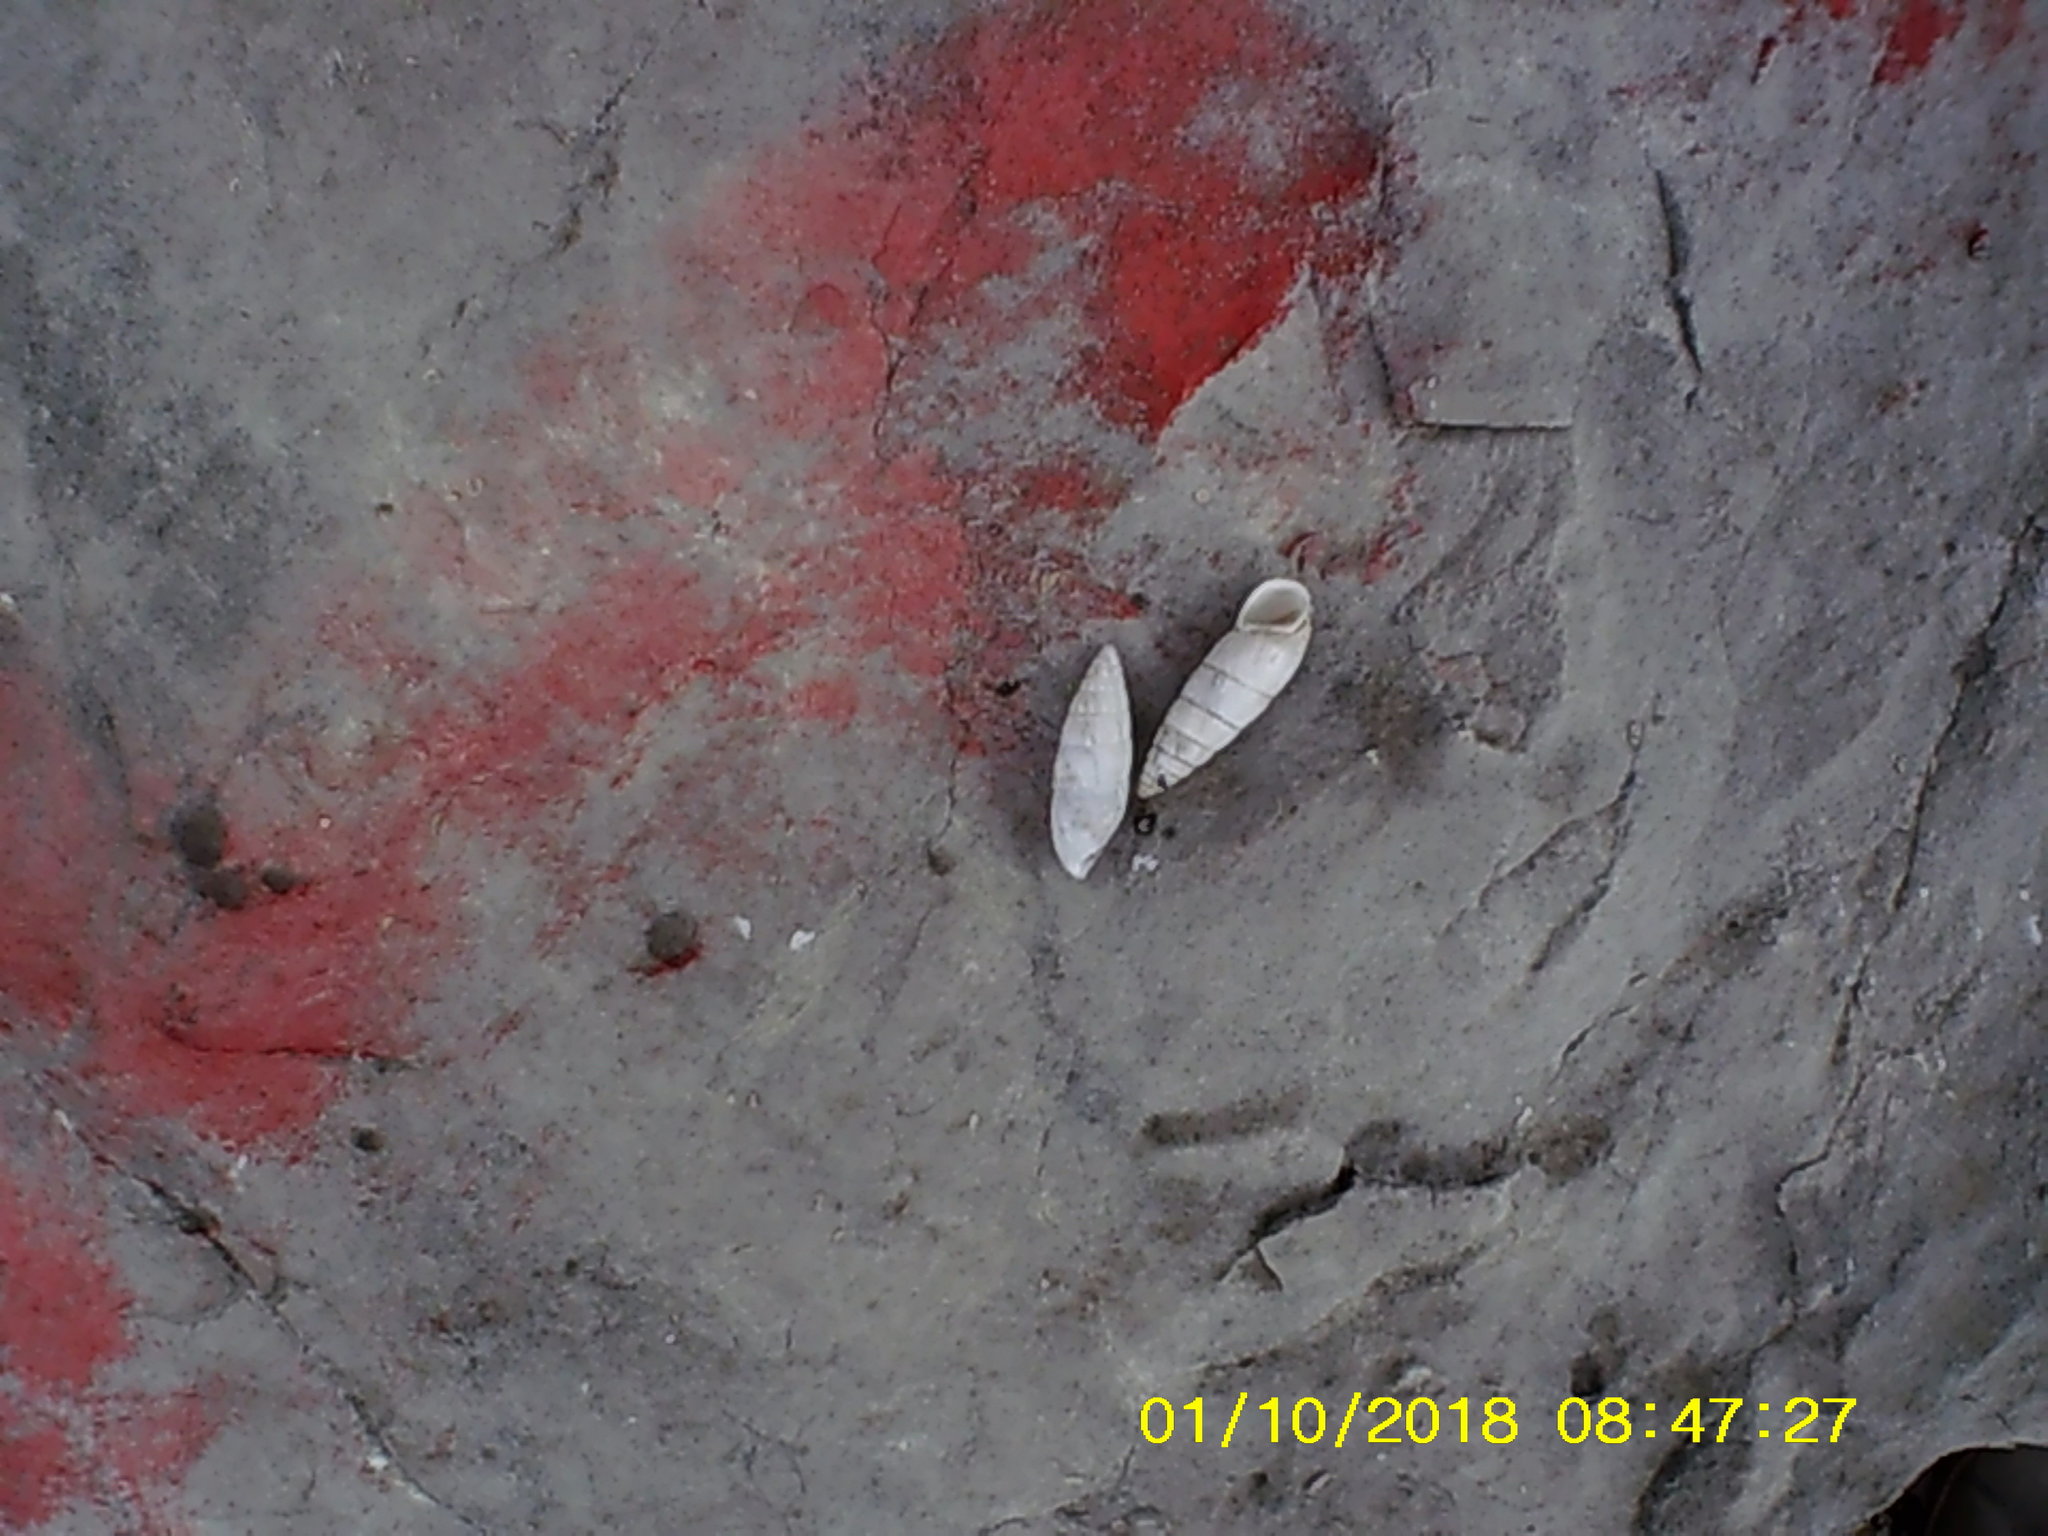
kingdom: Animalia
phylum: Mollusca
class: Gastropoda
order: Stylommatophora
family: Enidae
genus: Brephulopsis
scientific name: Brephulopsis cylindrica
